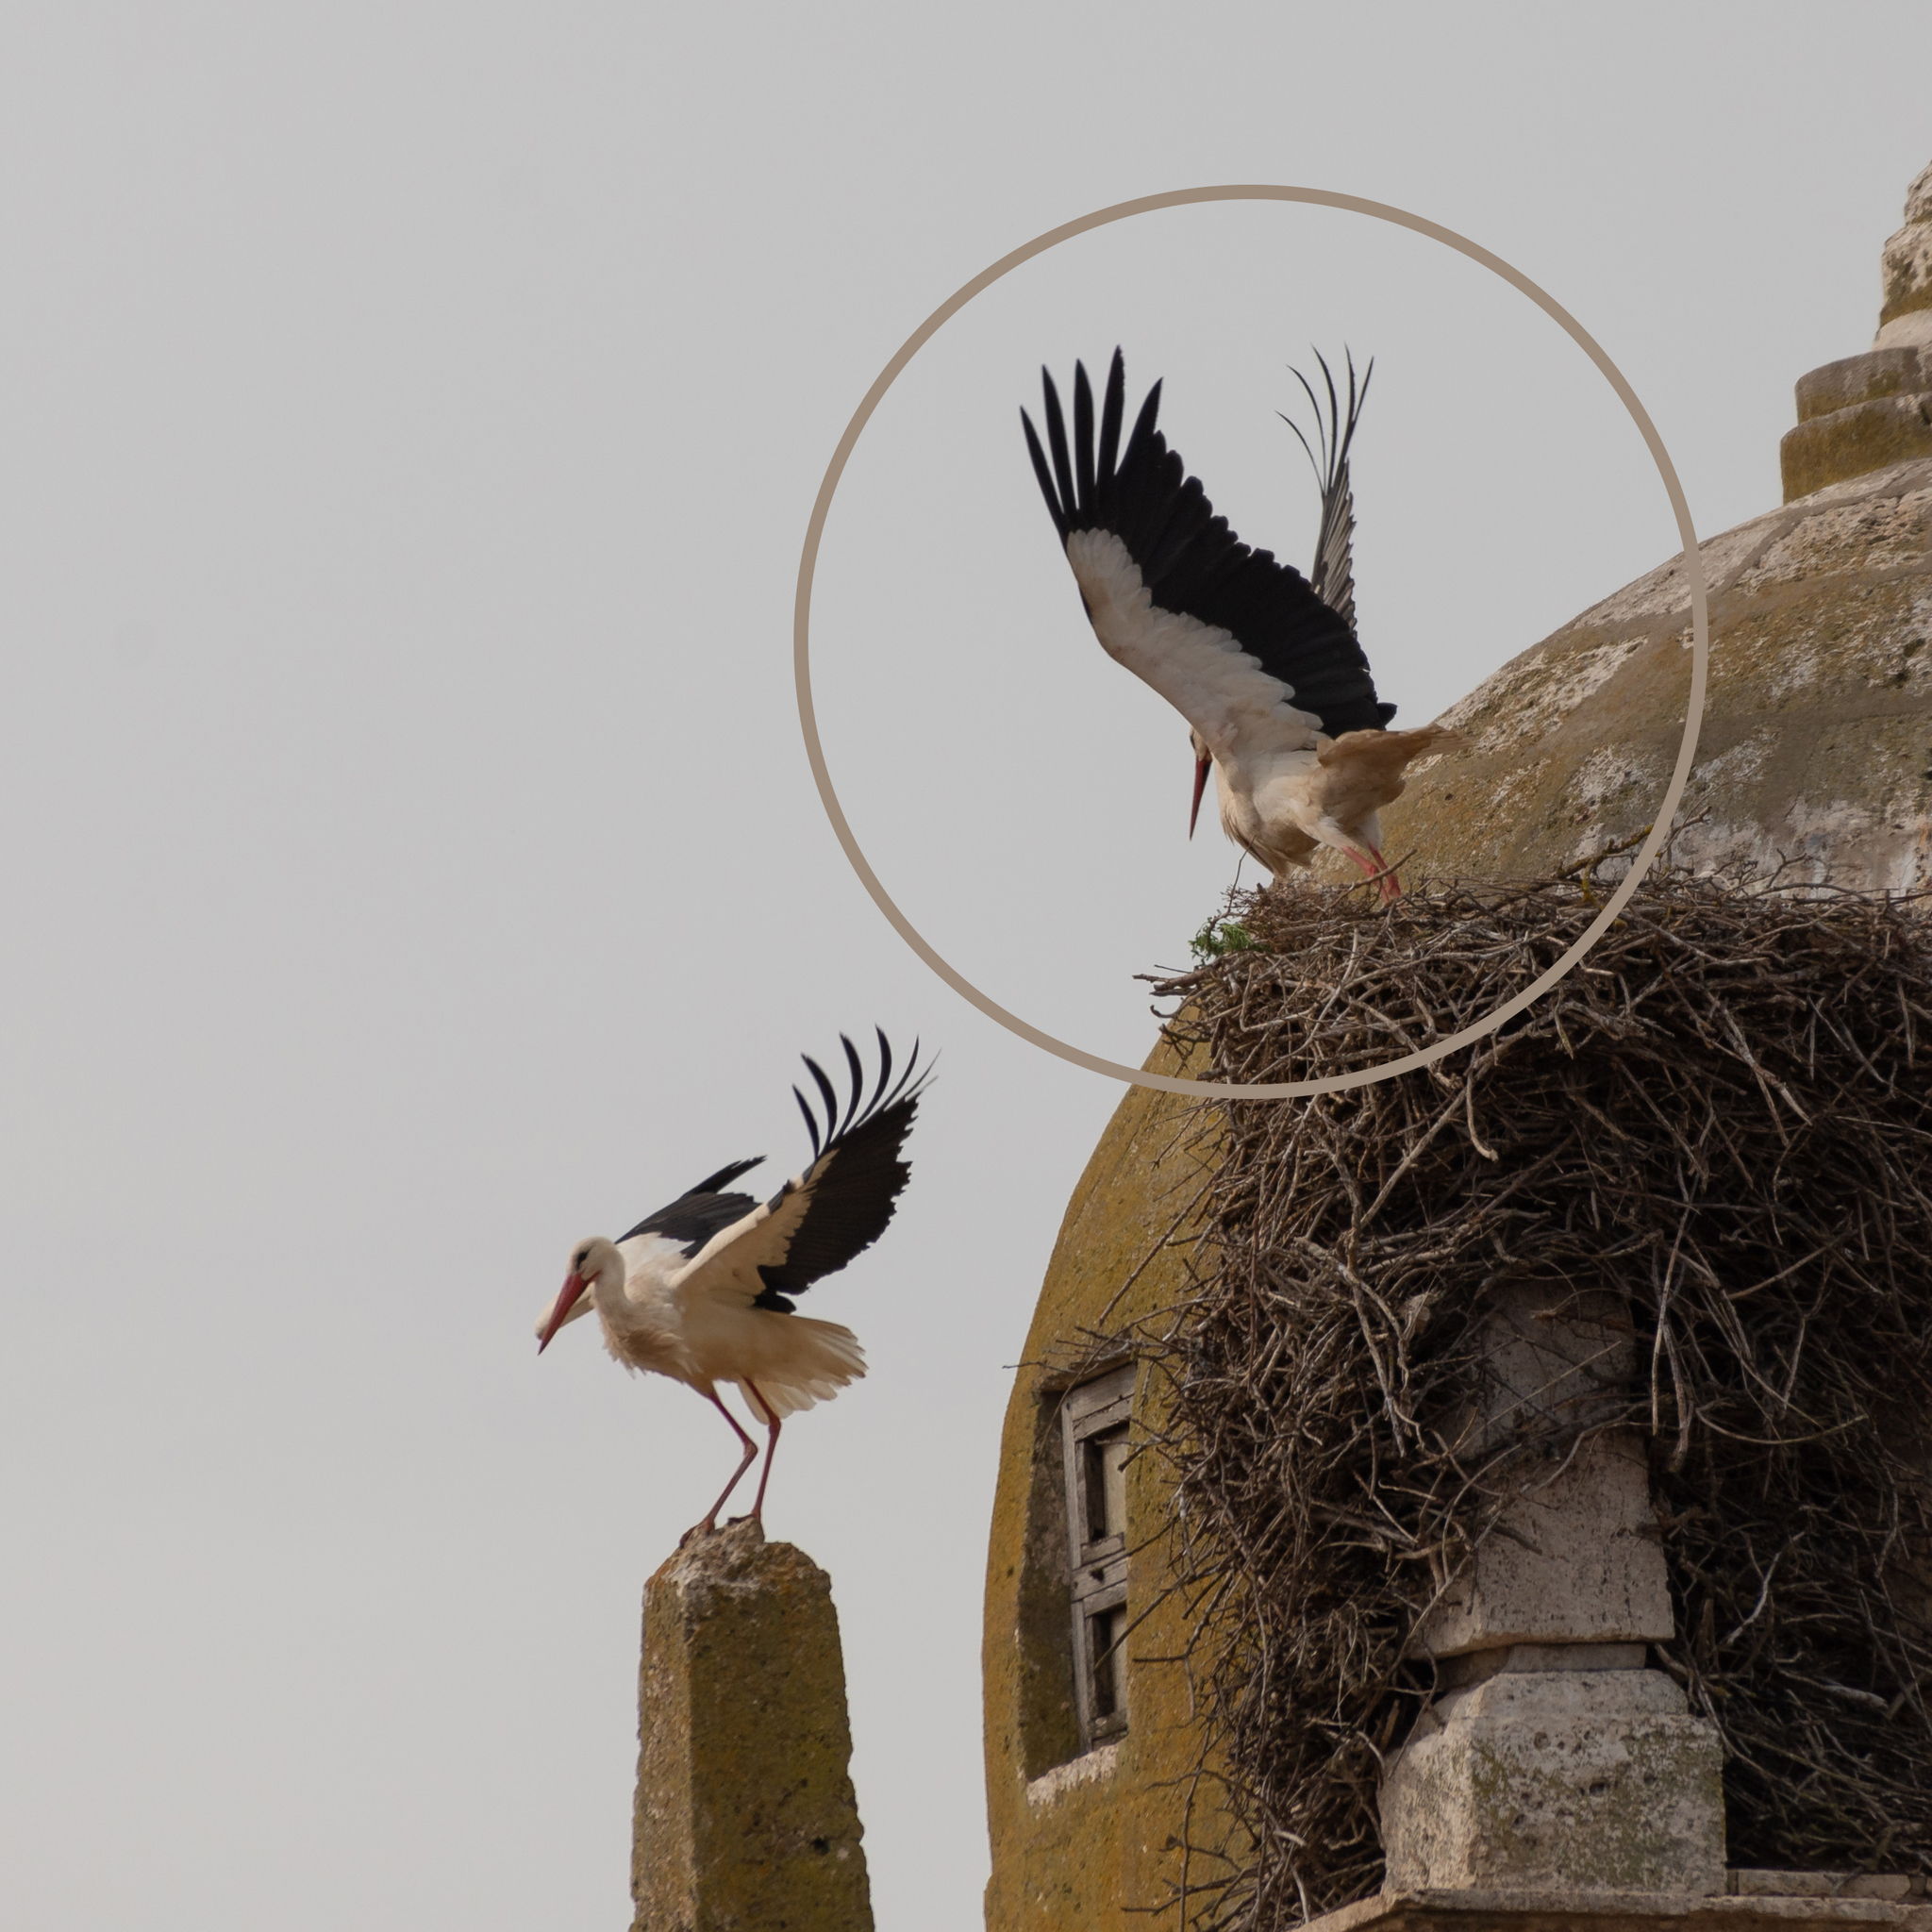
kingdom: Animalia
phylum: Chordata
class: Aves
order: Ciconiiformes
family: Ciconiidae
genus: Ciconia
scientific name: Ciconia ciconia
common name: White stork
